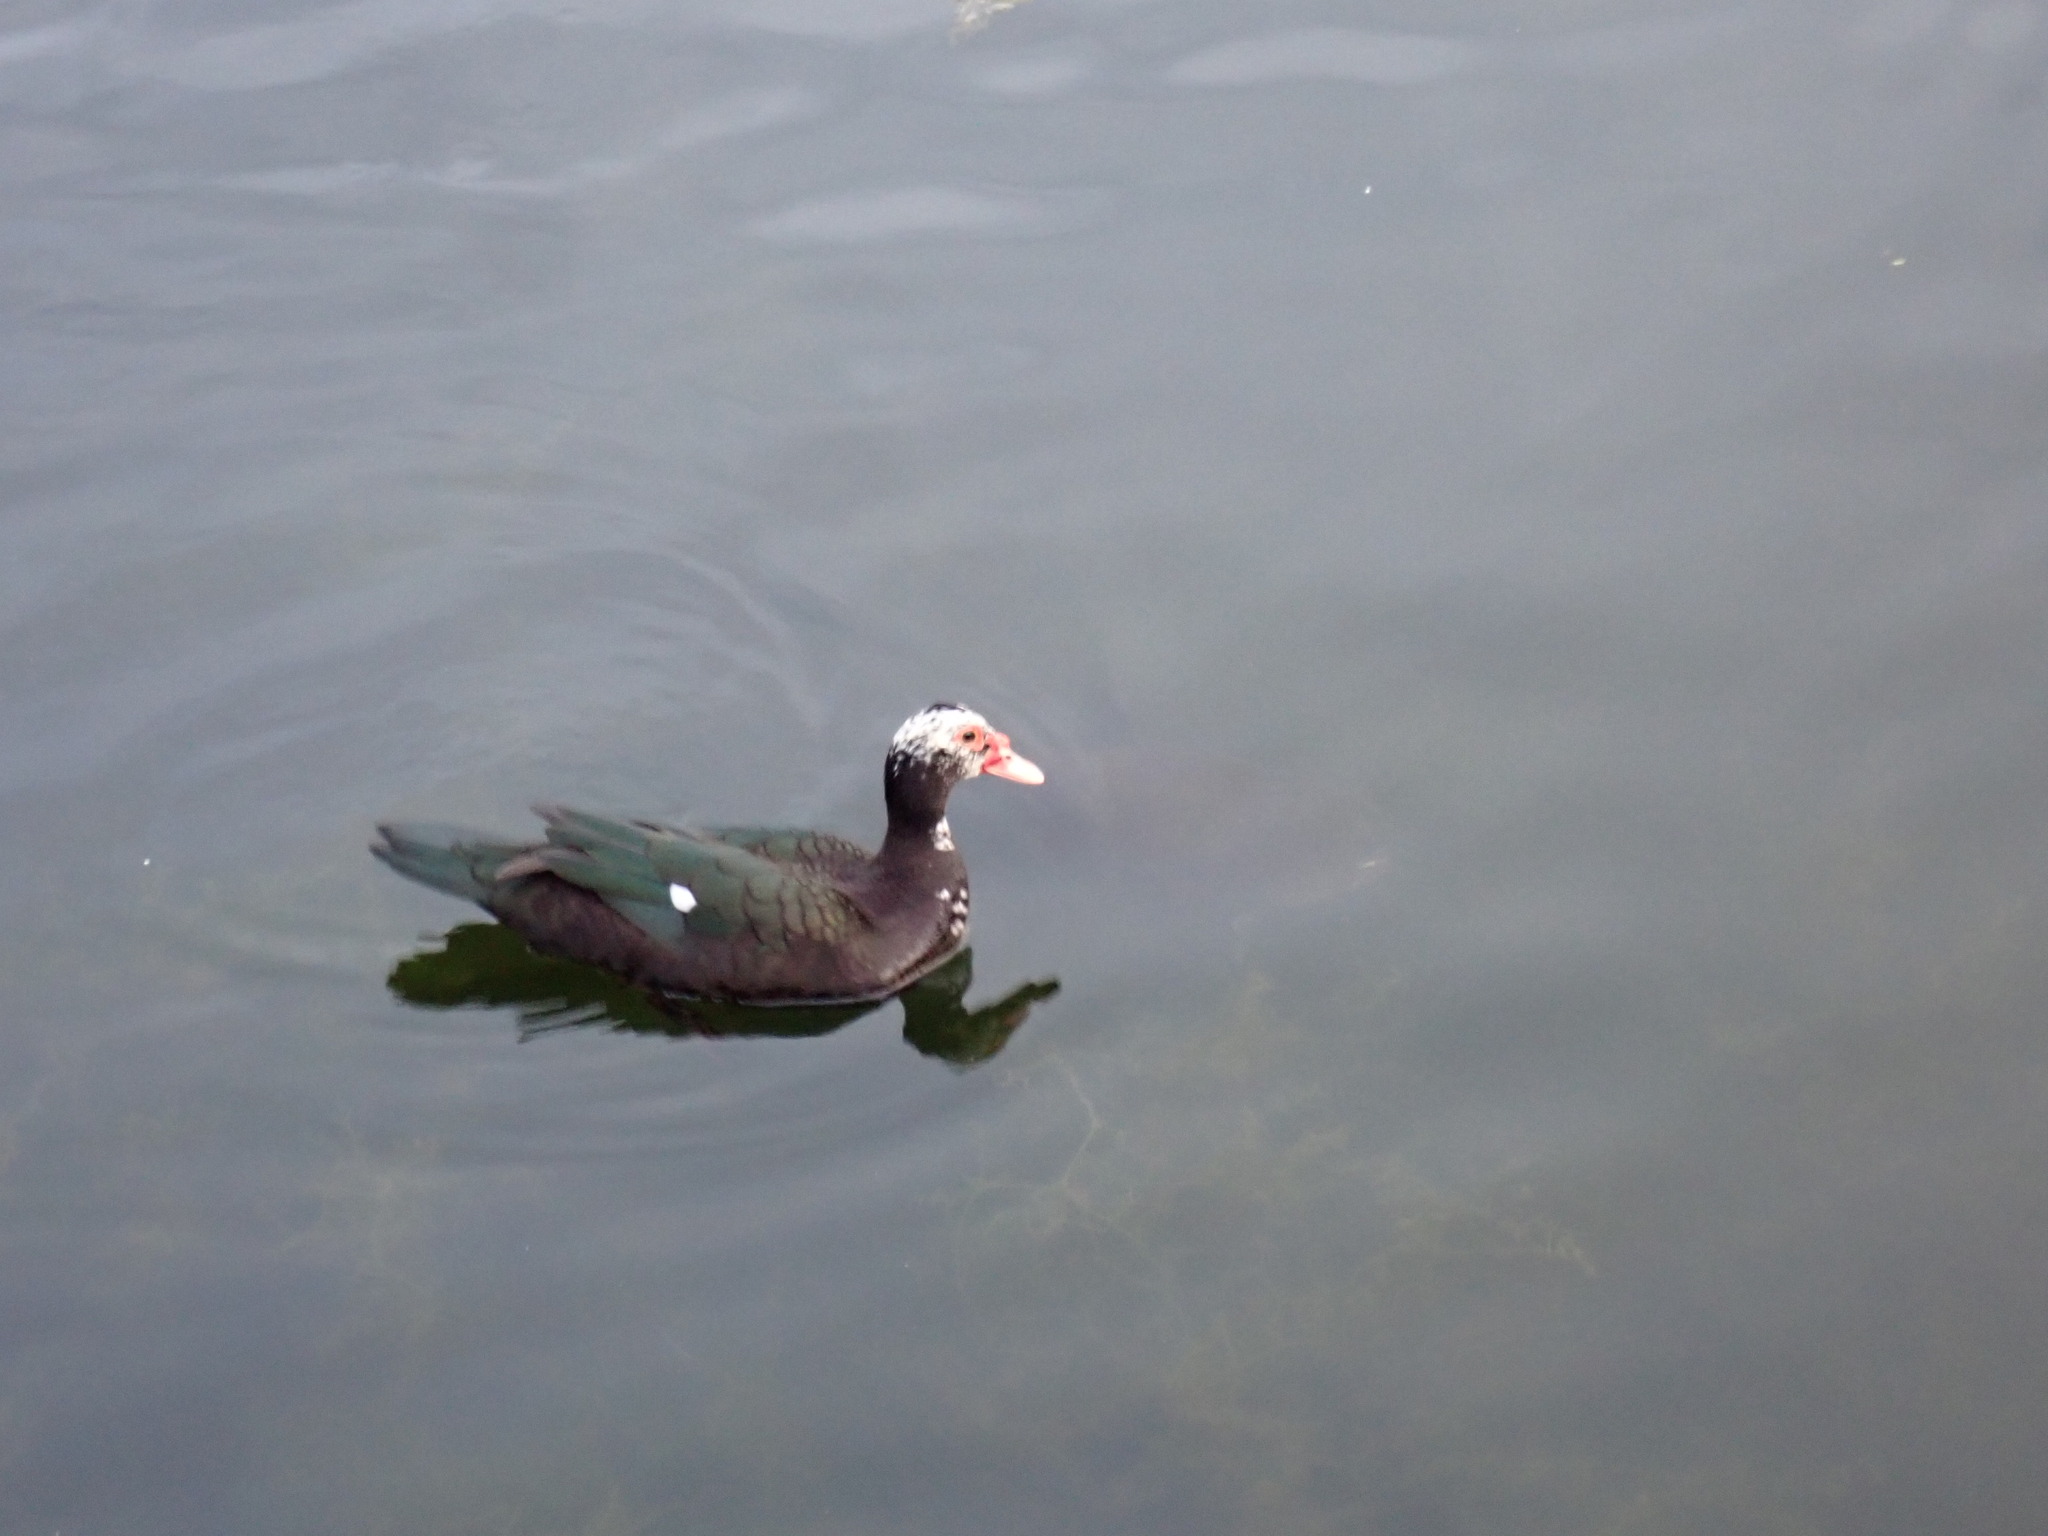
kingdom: Animalia
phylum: Chordata
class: Aves
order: Anseriformes
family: Anatidae
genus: Cairina
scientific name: Cairina moschata
